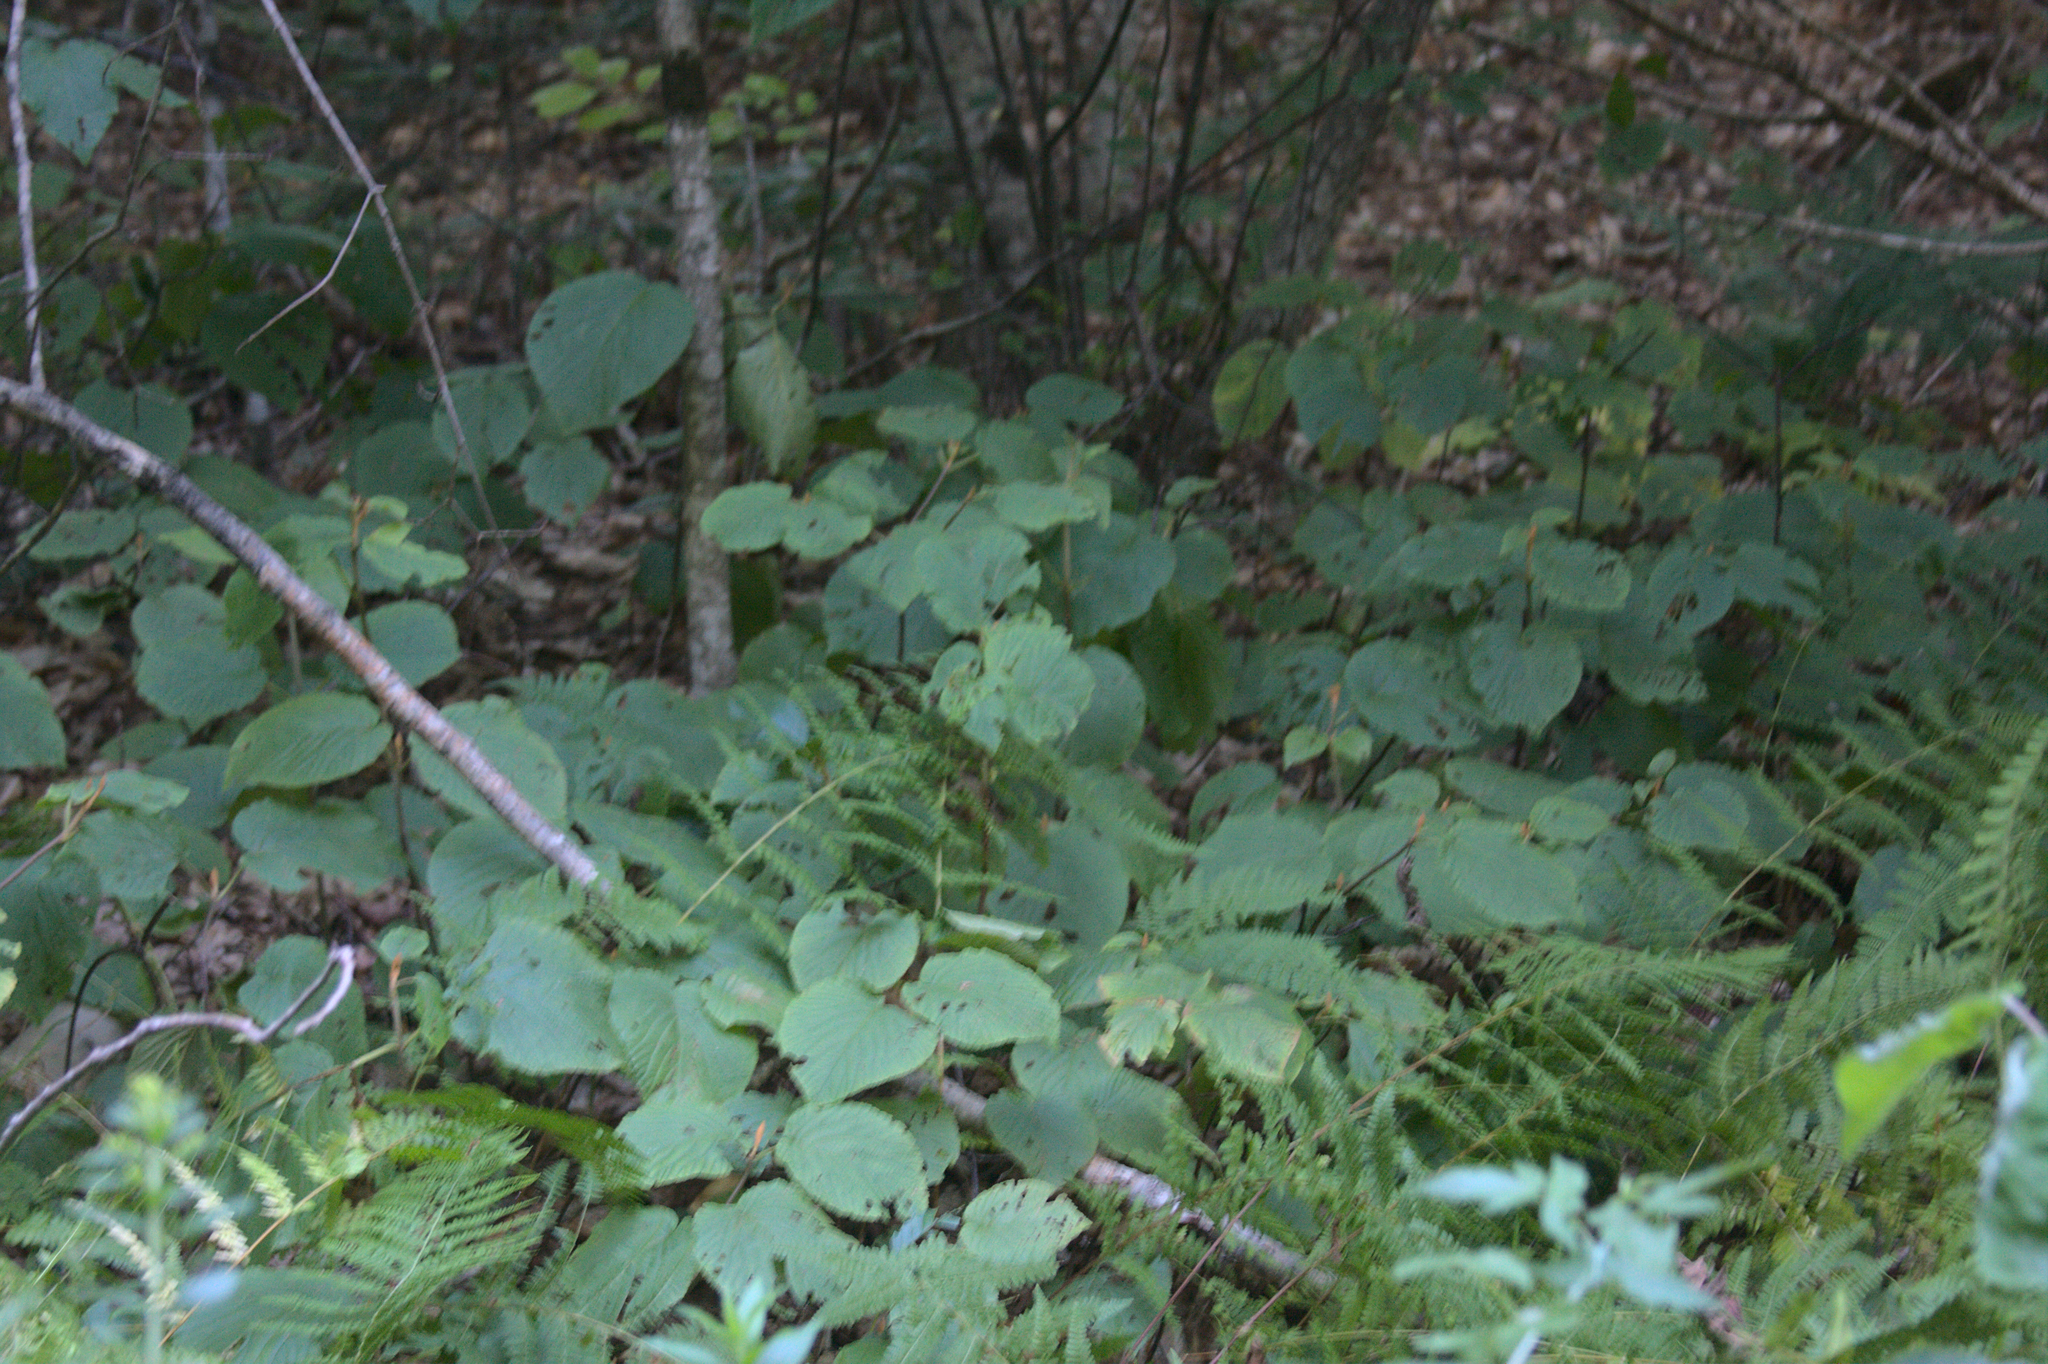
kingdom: Plantae
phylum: Tracheophyta
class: Magnoliopsida
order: Dipsacales
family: Viburnaceae
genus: Viburnum
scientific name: Viburnum lantanoides
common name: Hobblebush
